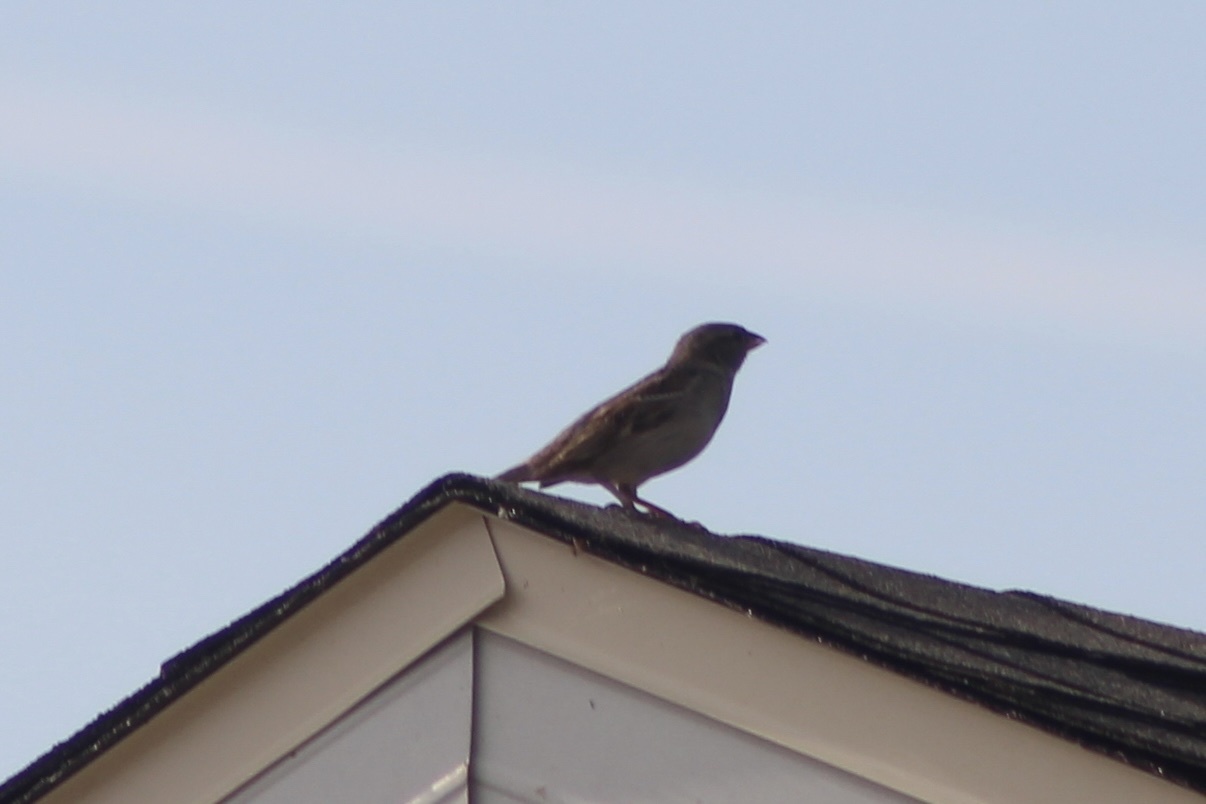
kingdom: Animalia
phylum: Chordata
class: Aves
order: Passeriformes
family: Passeridae
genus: Passer
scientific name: Passer domesticus
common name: House sparrow
